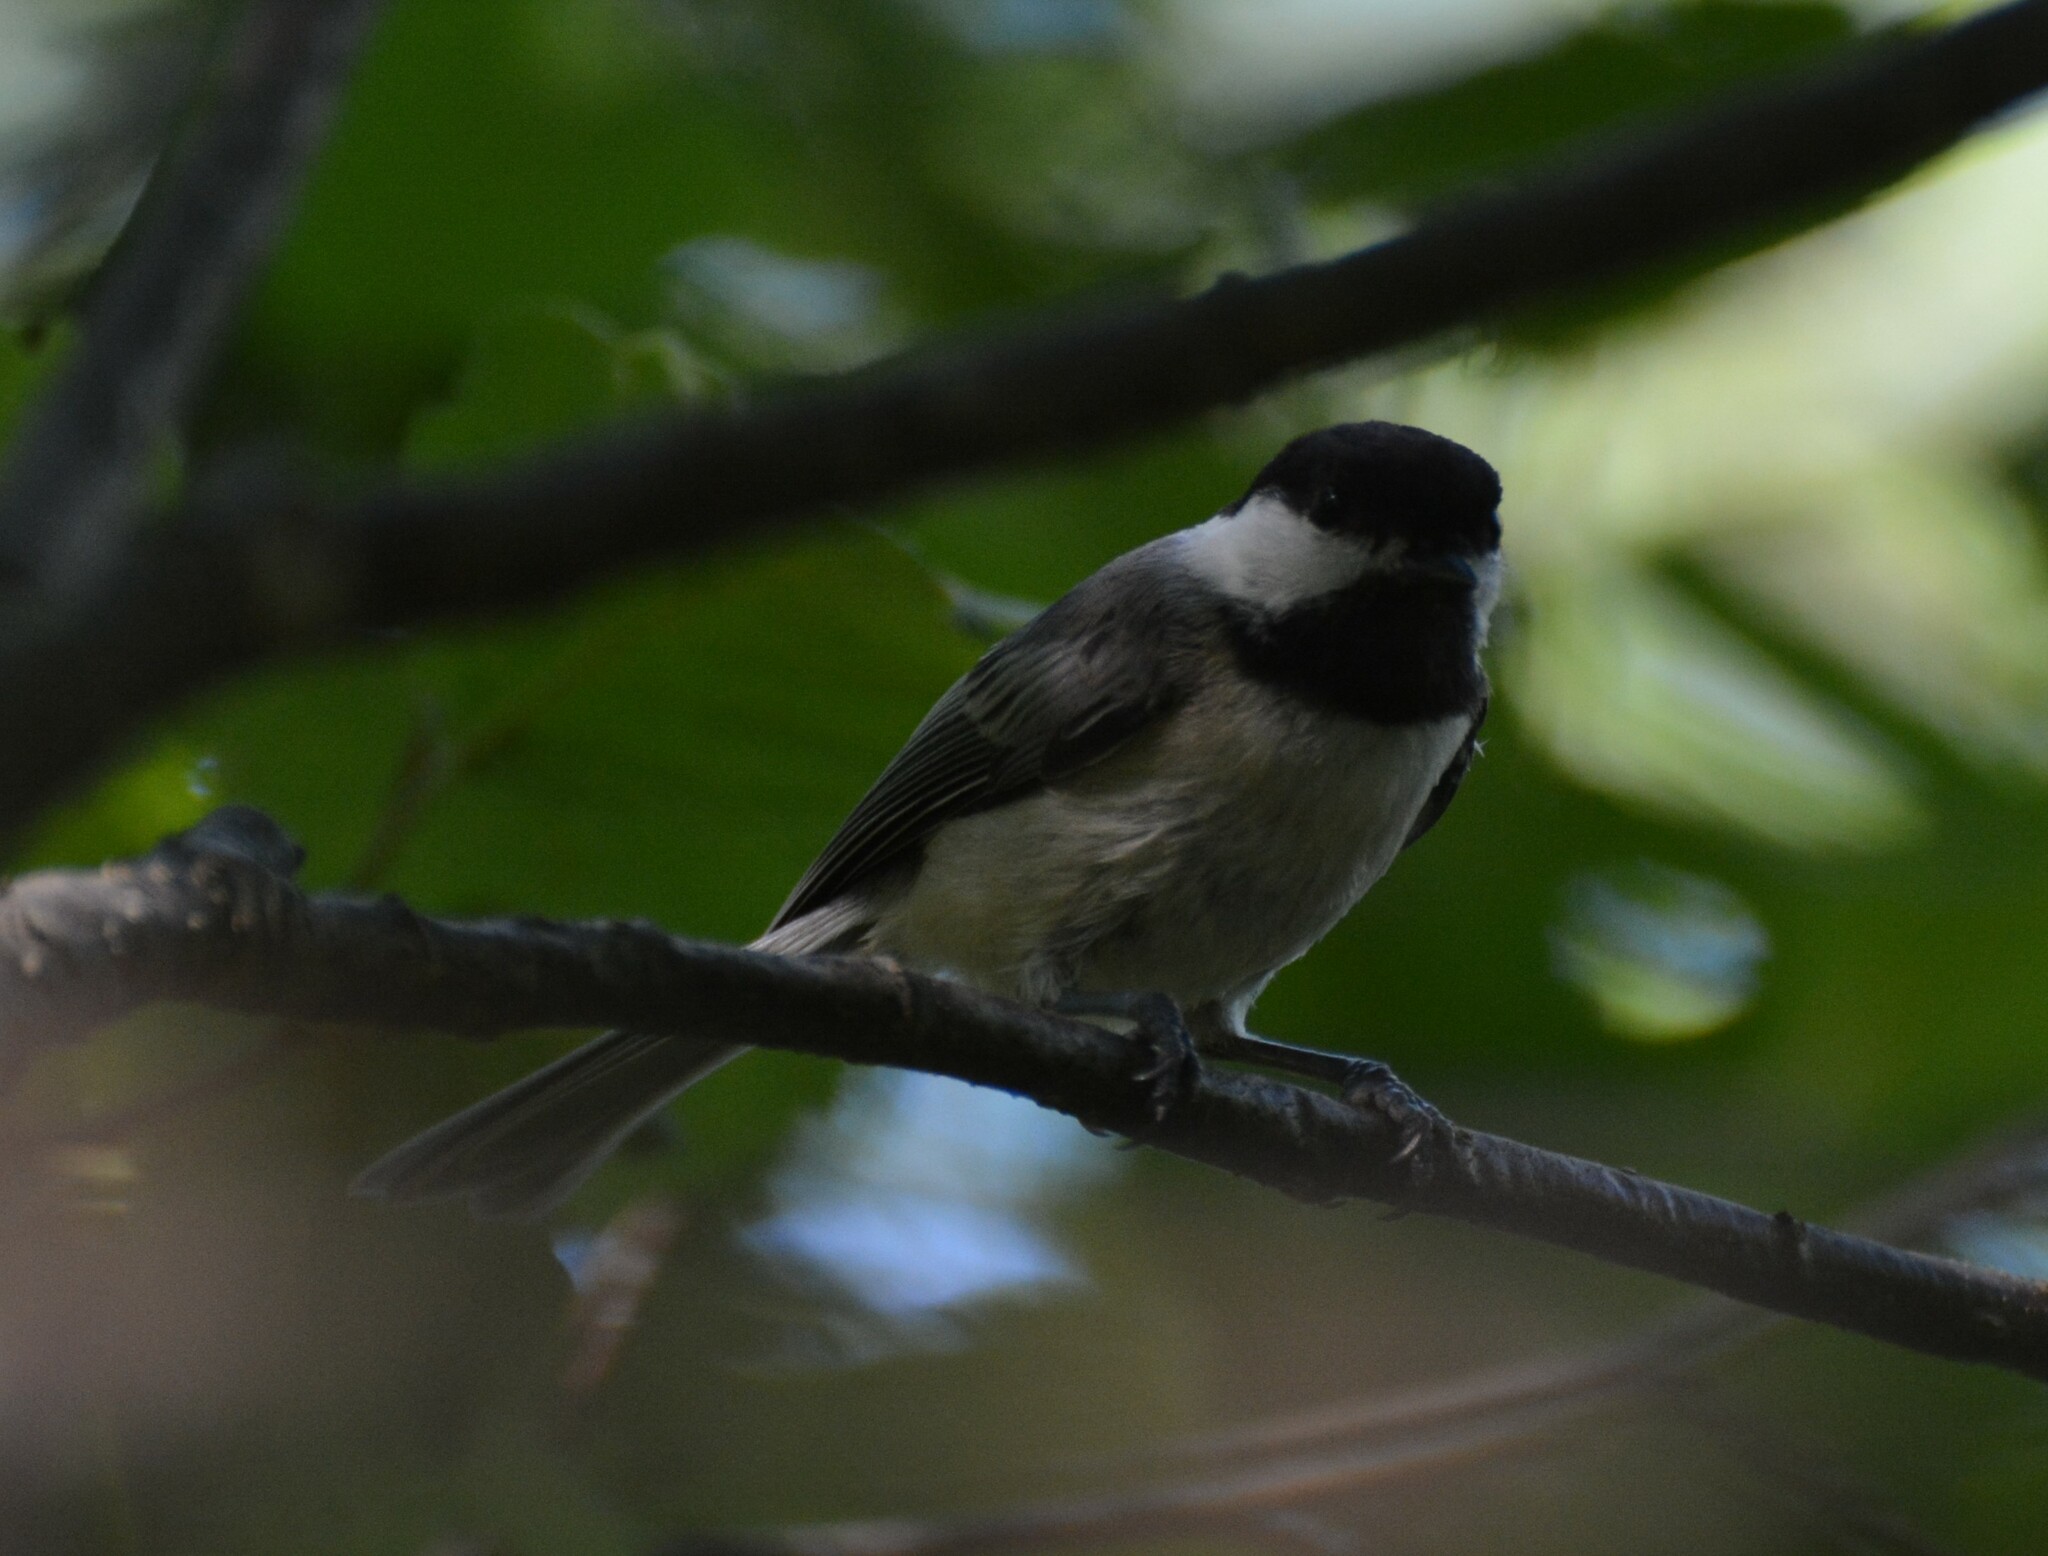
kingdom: Animalia
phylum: Chordata
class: Aves
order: Passeriformes
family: Paridae
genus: Poecile
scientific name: Poecile atricapillus
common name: Black-capped chickadee
